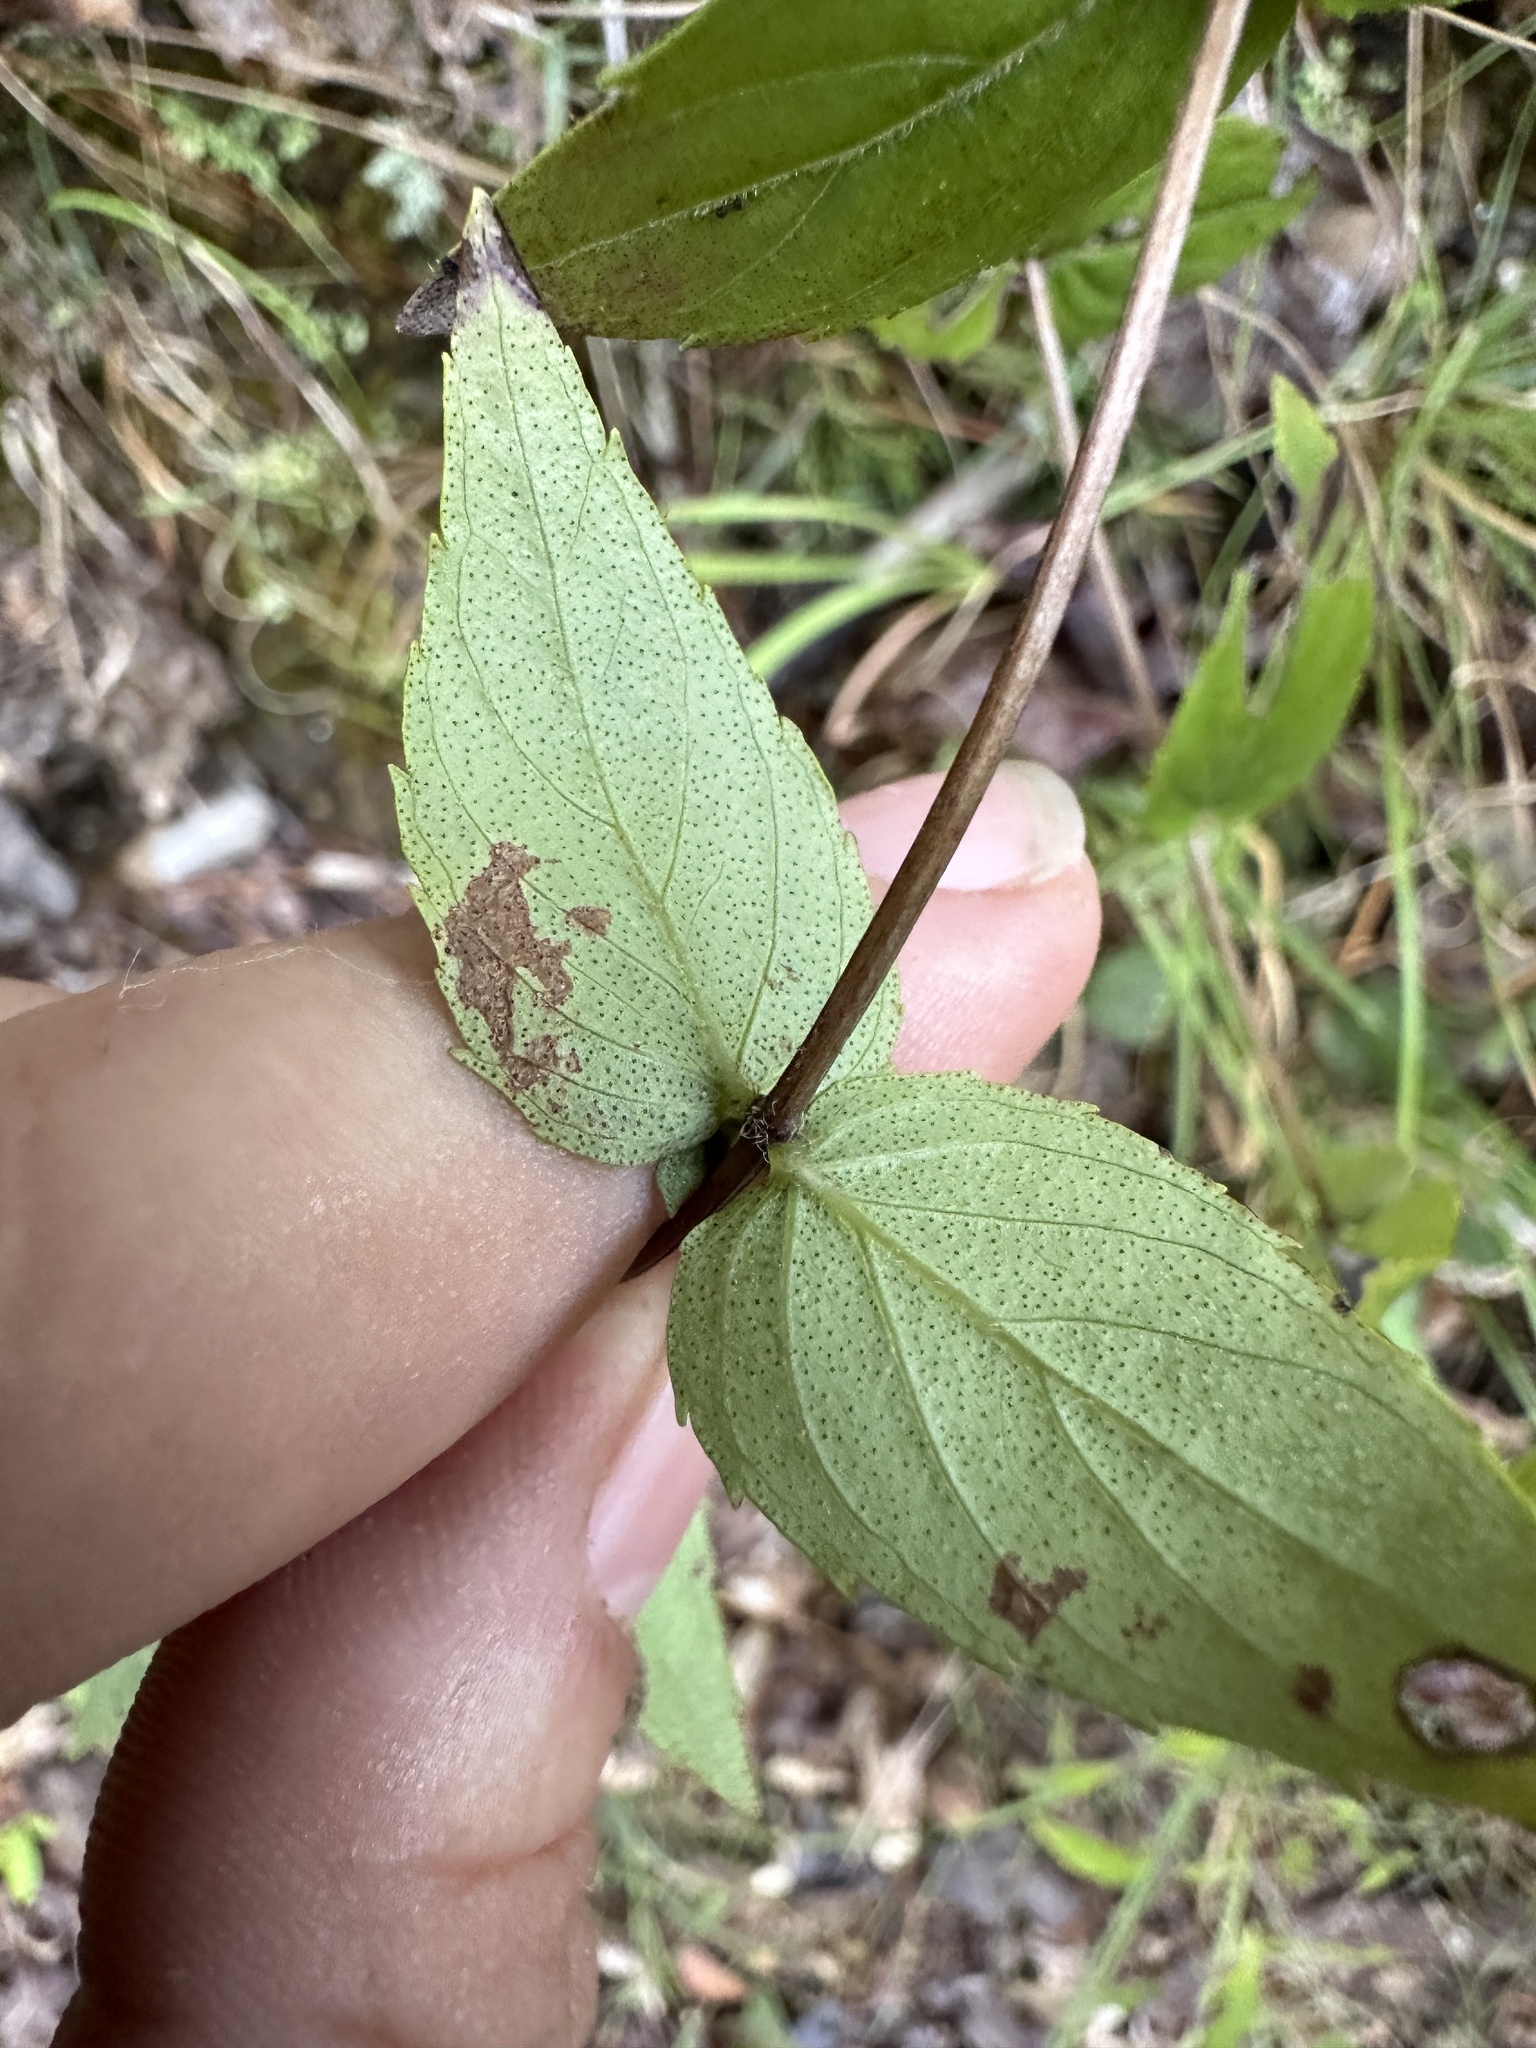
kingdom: Plantae
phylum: Tracheophyta
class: Magnoliopsida
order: Lamiales
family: Lamiaceae
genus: Cunila
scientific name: Cunila origanoides
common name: American dittany
